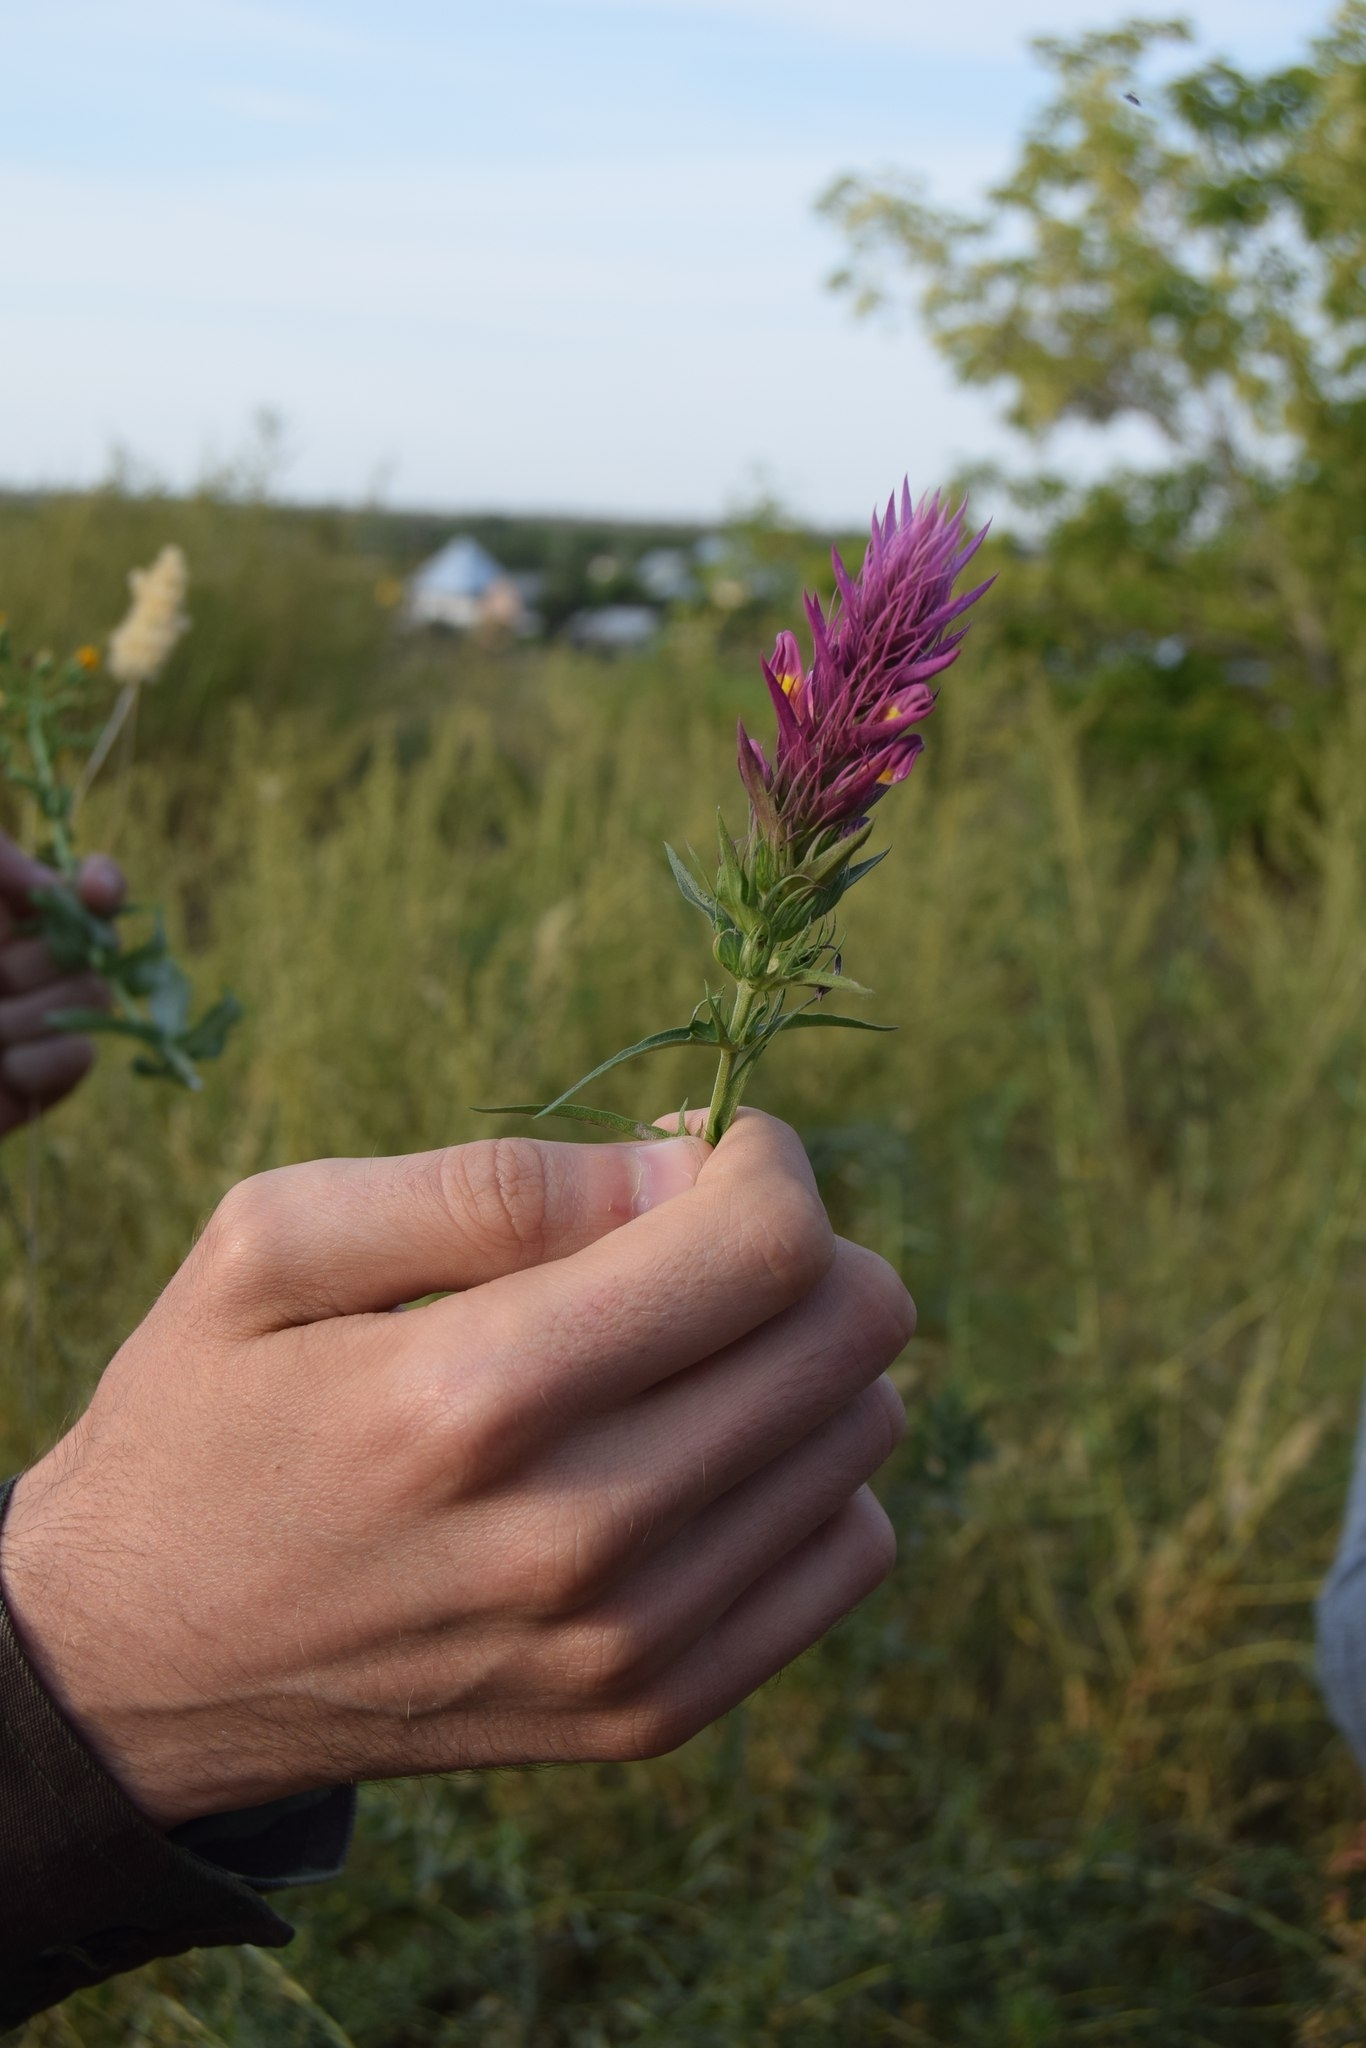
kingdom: Plantae
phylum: Tracheophyta
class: Magnoliopsida
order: Lamiales
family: Orobanchaceae
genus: Melampyrum
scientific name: Melampyrum arvense
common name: Field cow-wheat
